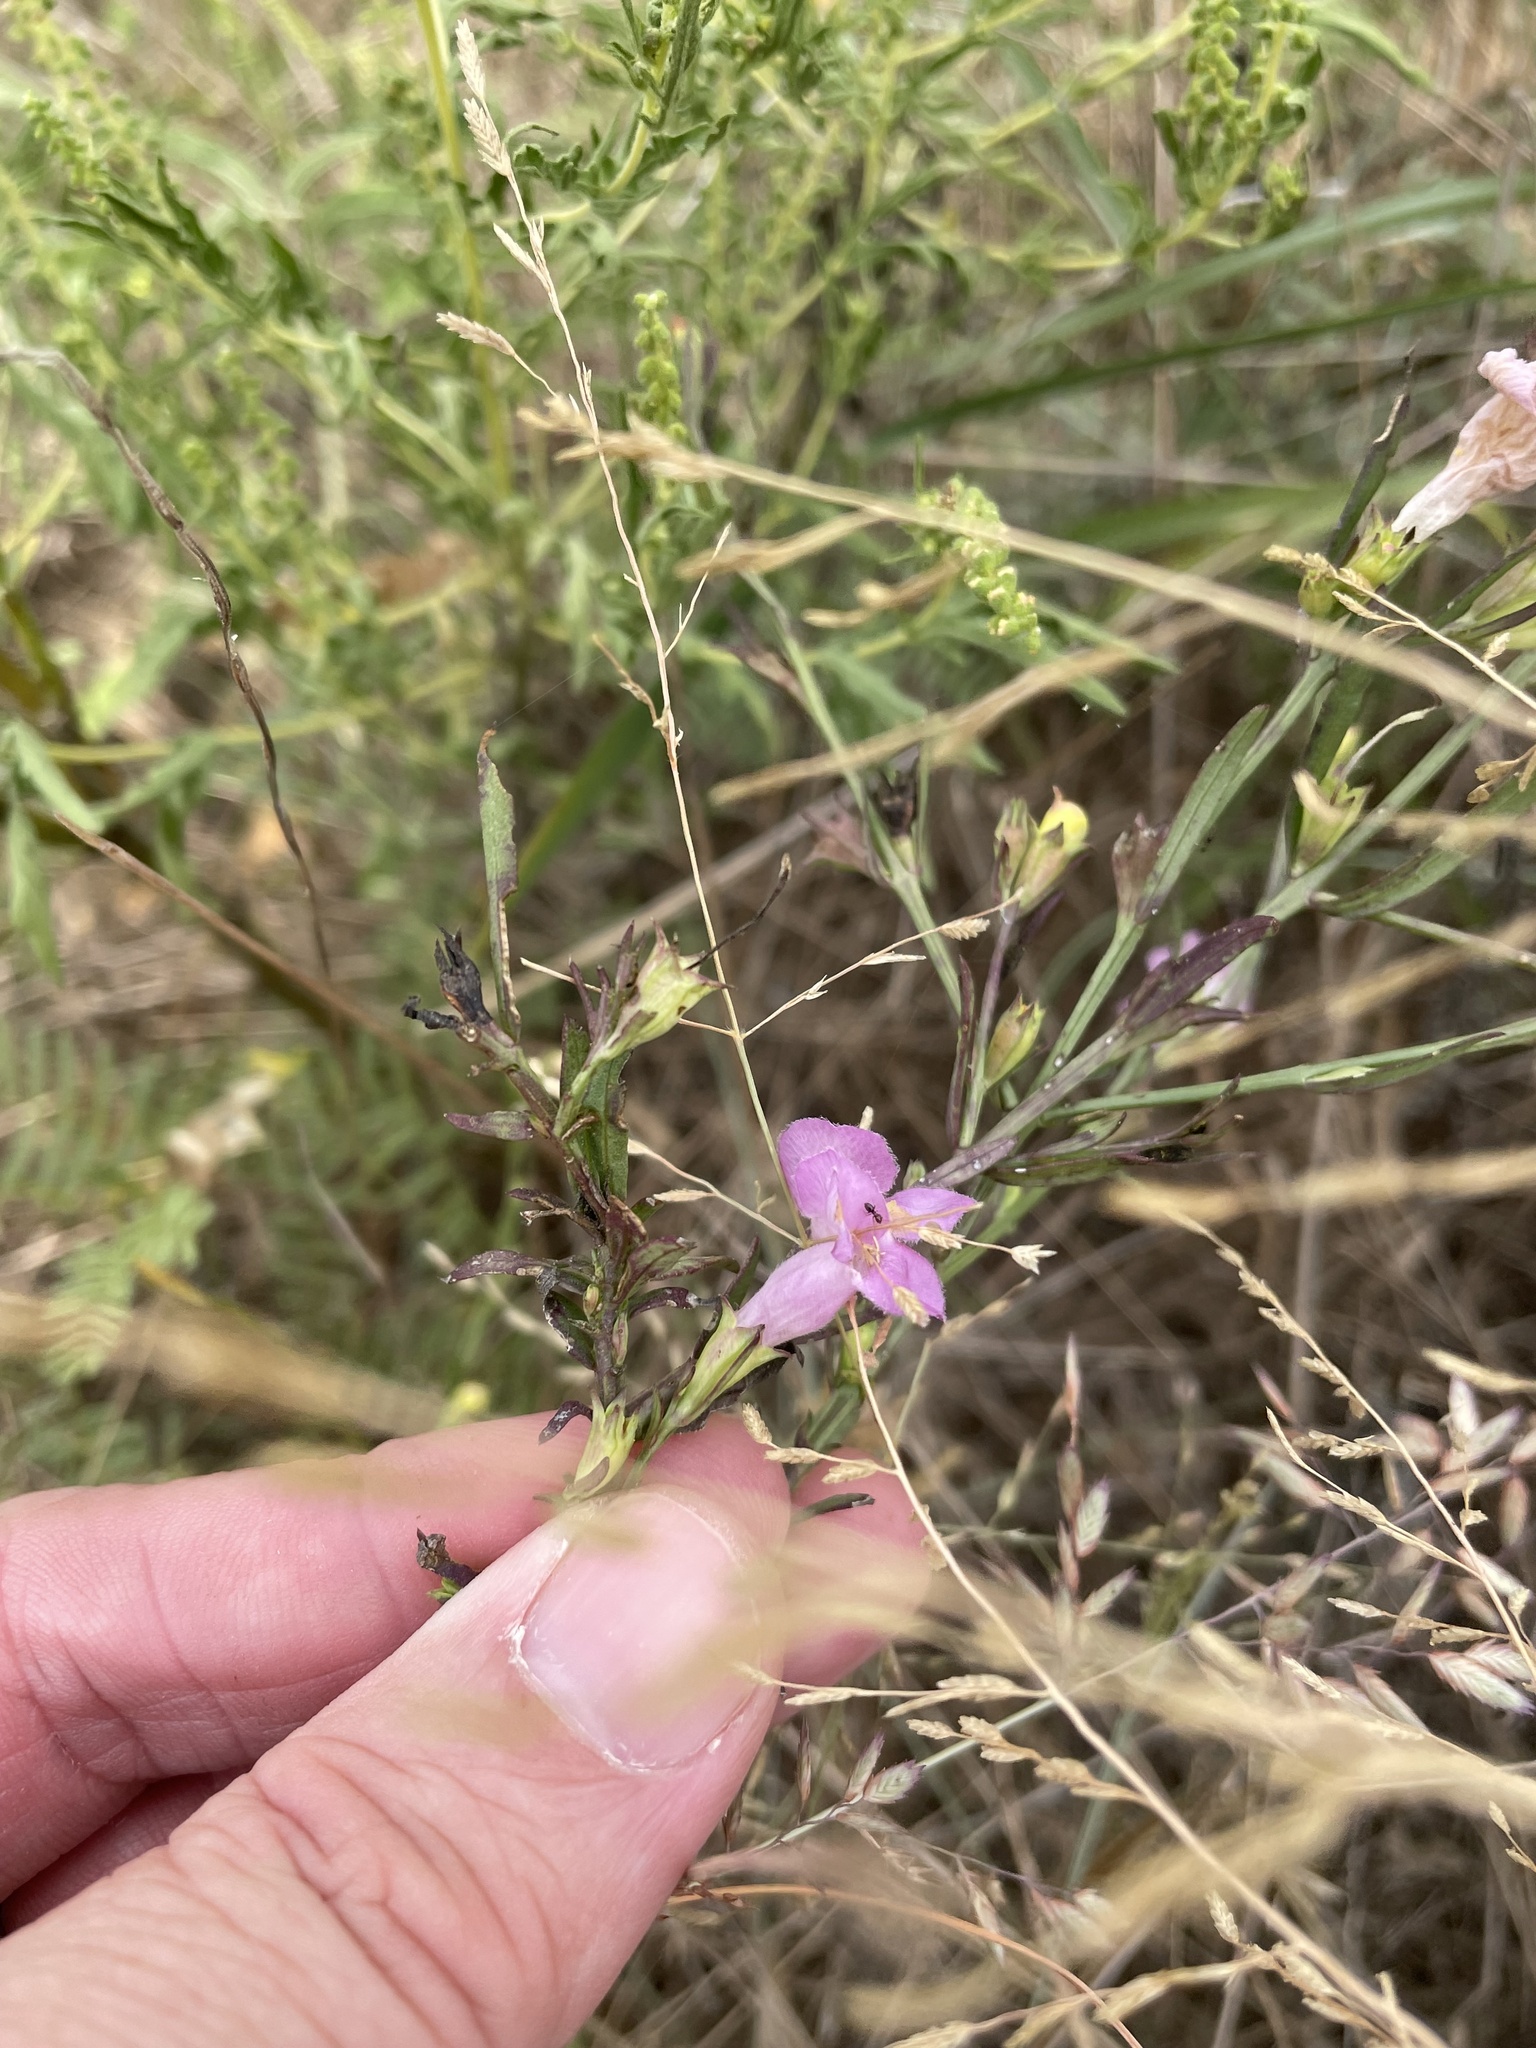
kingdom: Plantae
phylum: Tracheophyta
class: Magnoliopsida
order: Lamiales
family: Orobanchaceae
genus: Agalinis
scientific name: Agalinis heterophylla
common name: Prairie agalinis
